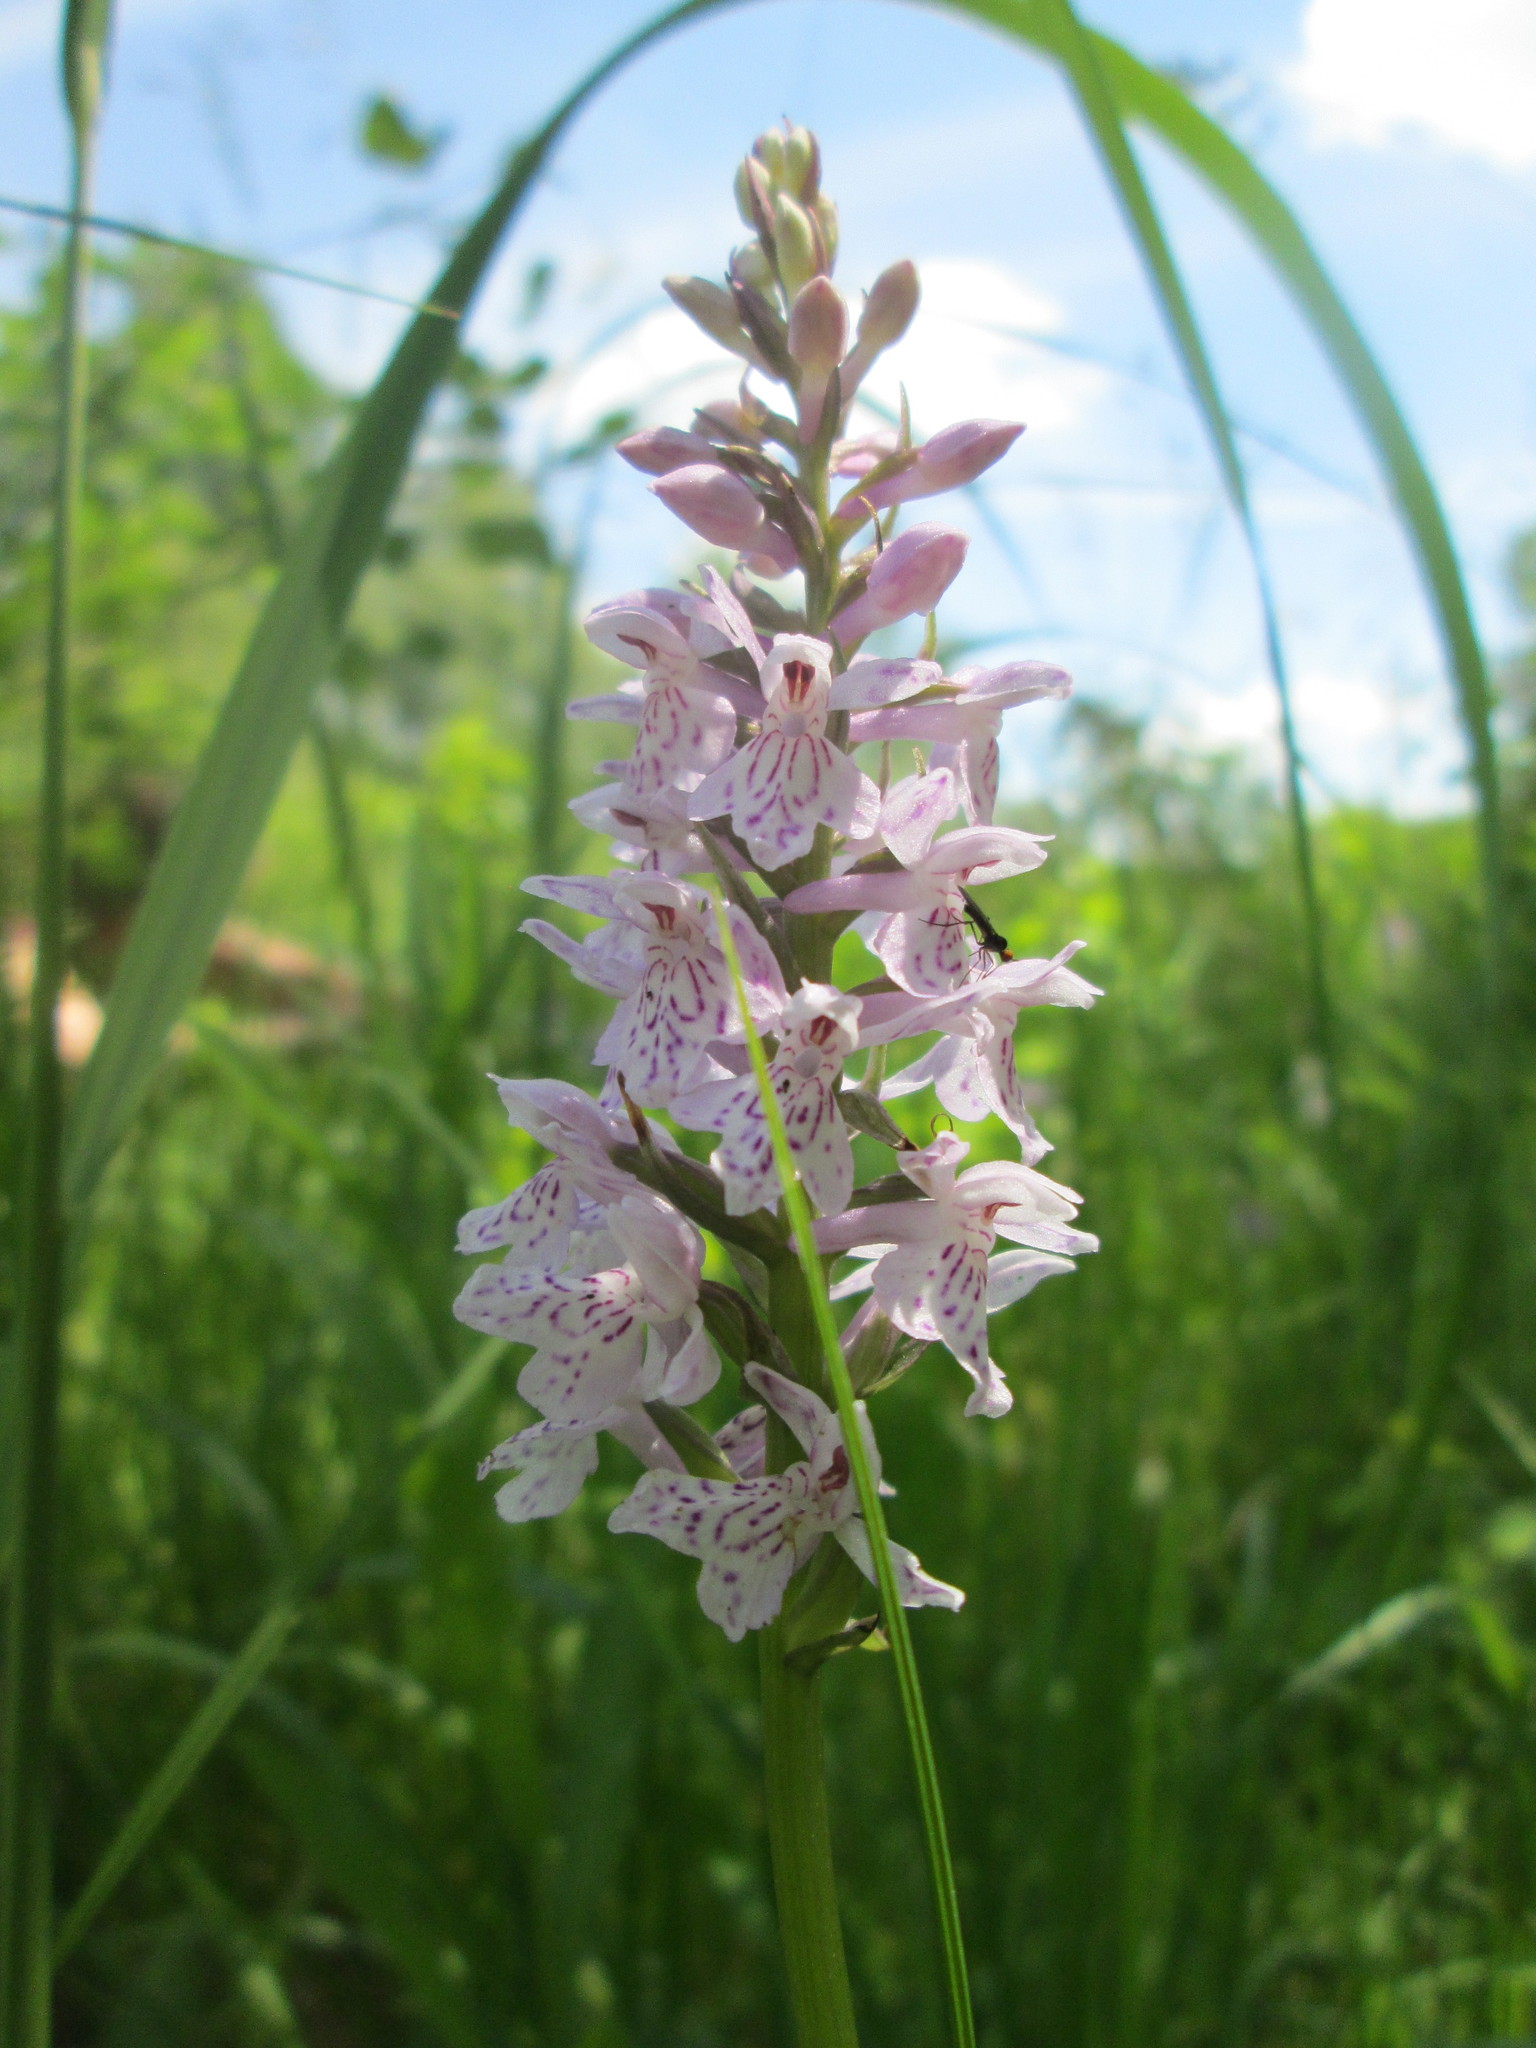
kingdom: Plantae
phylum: Tracheophyta
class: Liliopsida
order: Asparagales
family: Orchidaceae
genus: Dactylorhiza
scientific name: Dactylorhiza maculata
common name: Heath spotted-orchid
